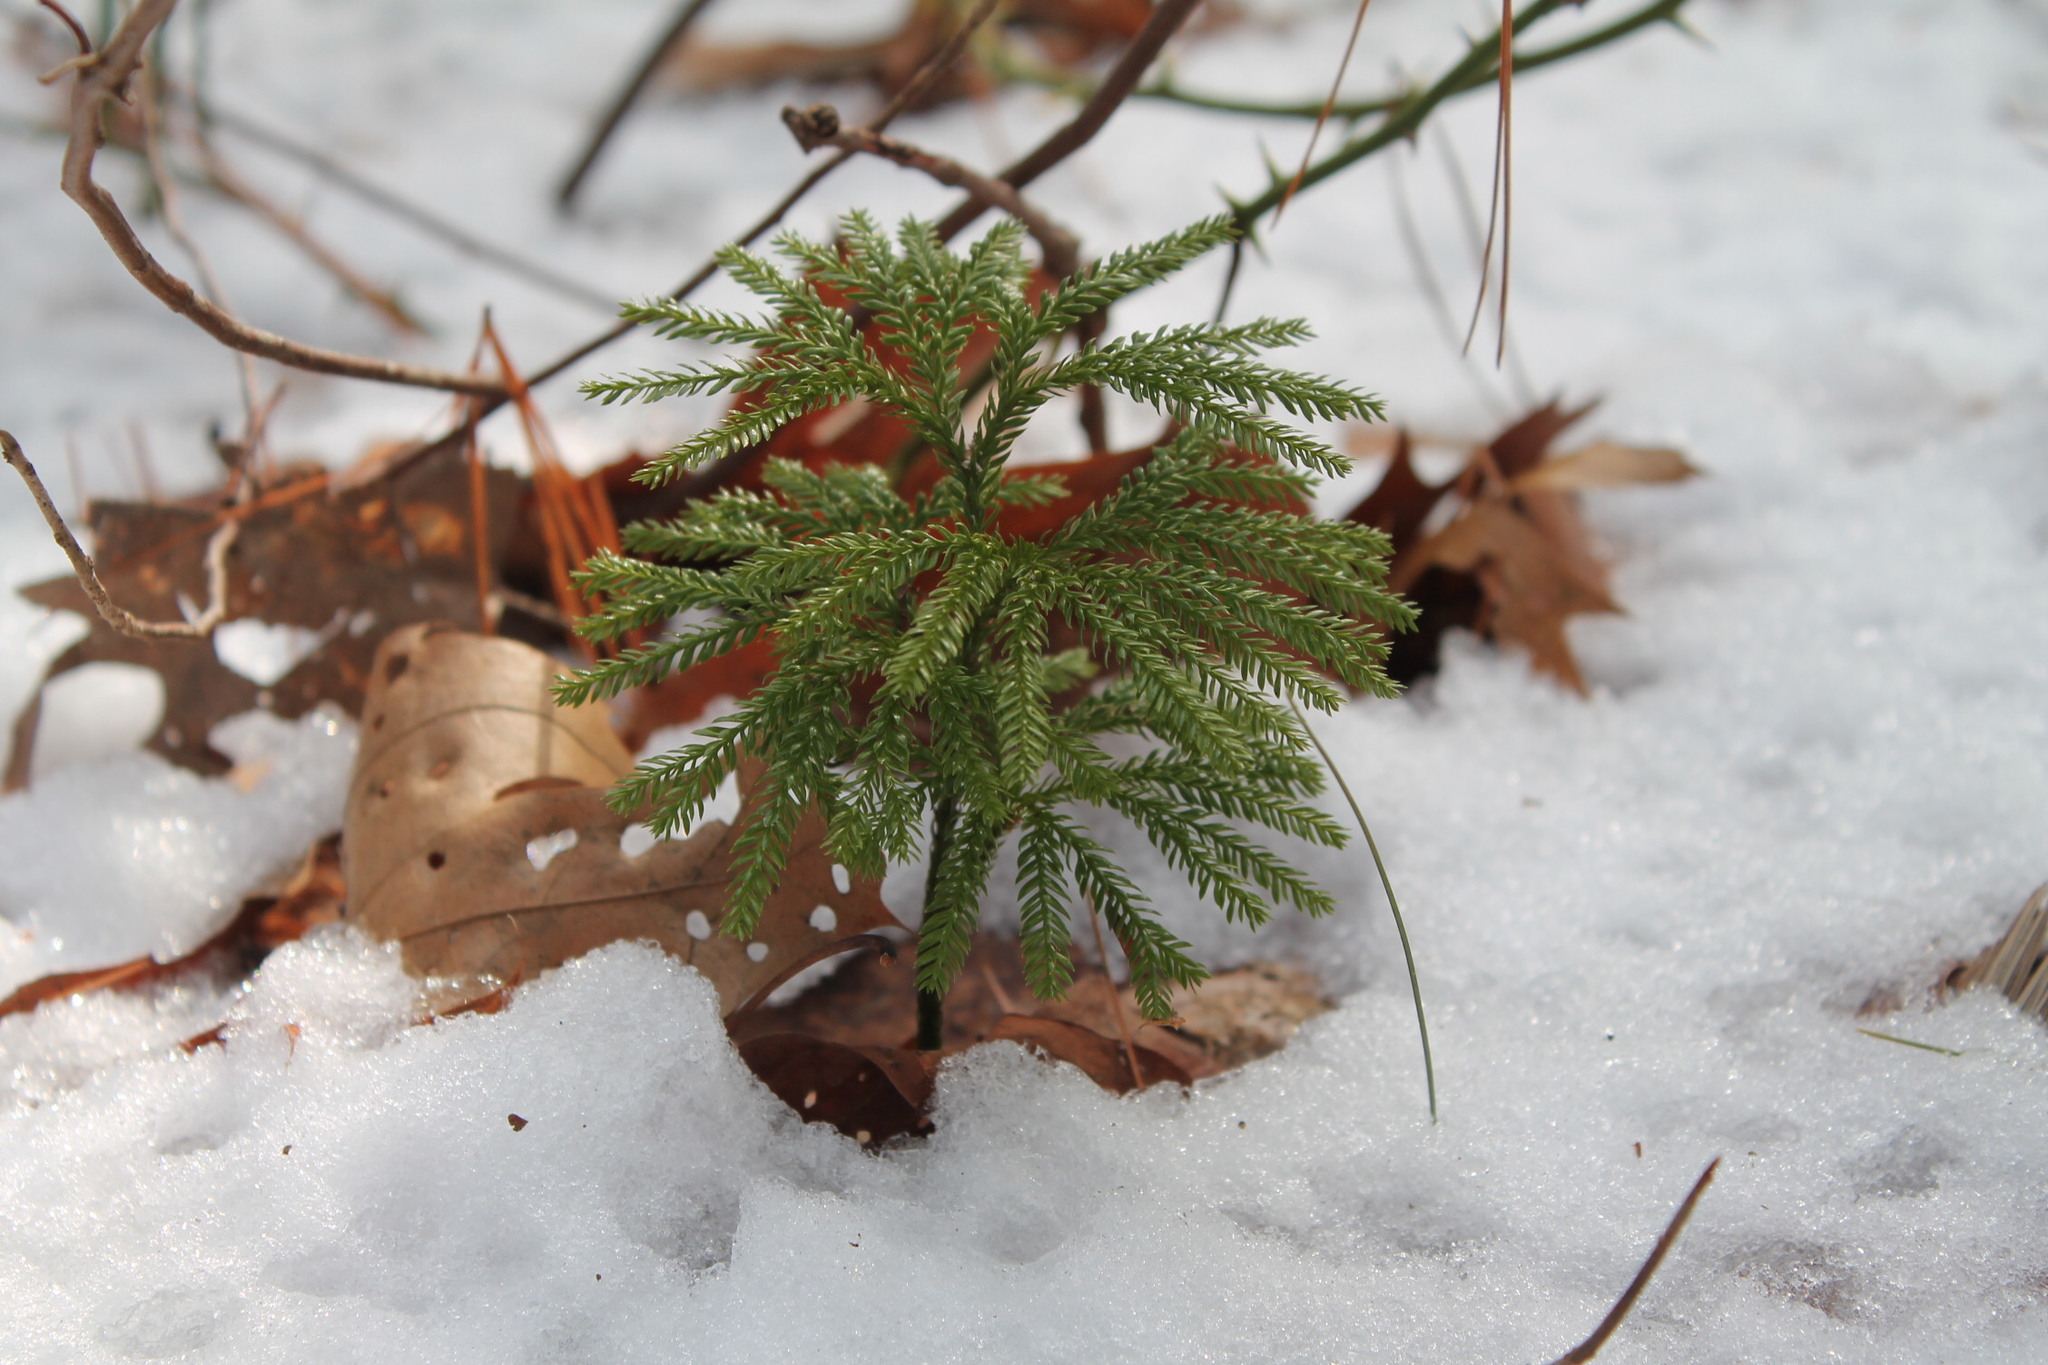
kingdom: Plantae
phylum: Tracheophyta
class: Lycopodiopsida
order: Lycopodiales
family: Lycopodiaceae
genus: Dendrolycopodium
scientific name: Dendrolycopodium obscurum
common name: Common ground-pine
